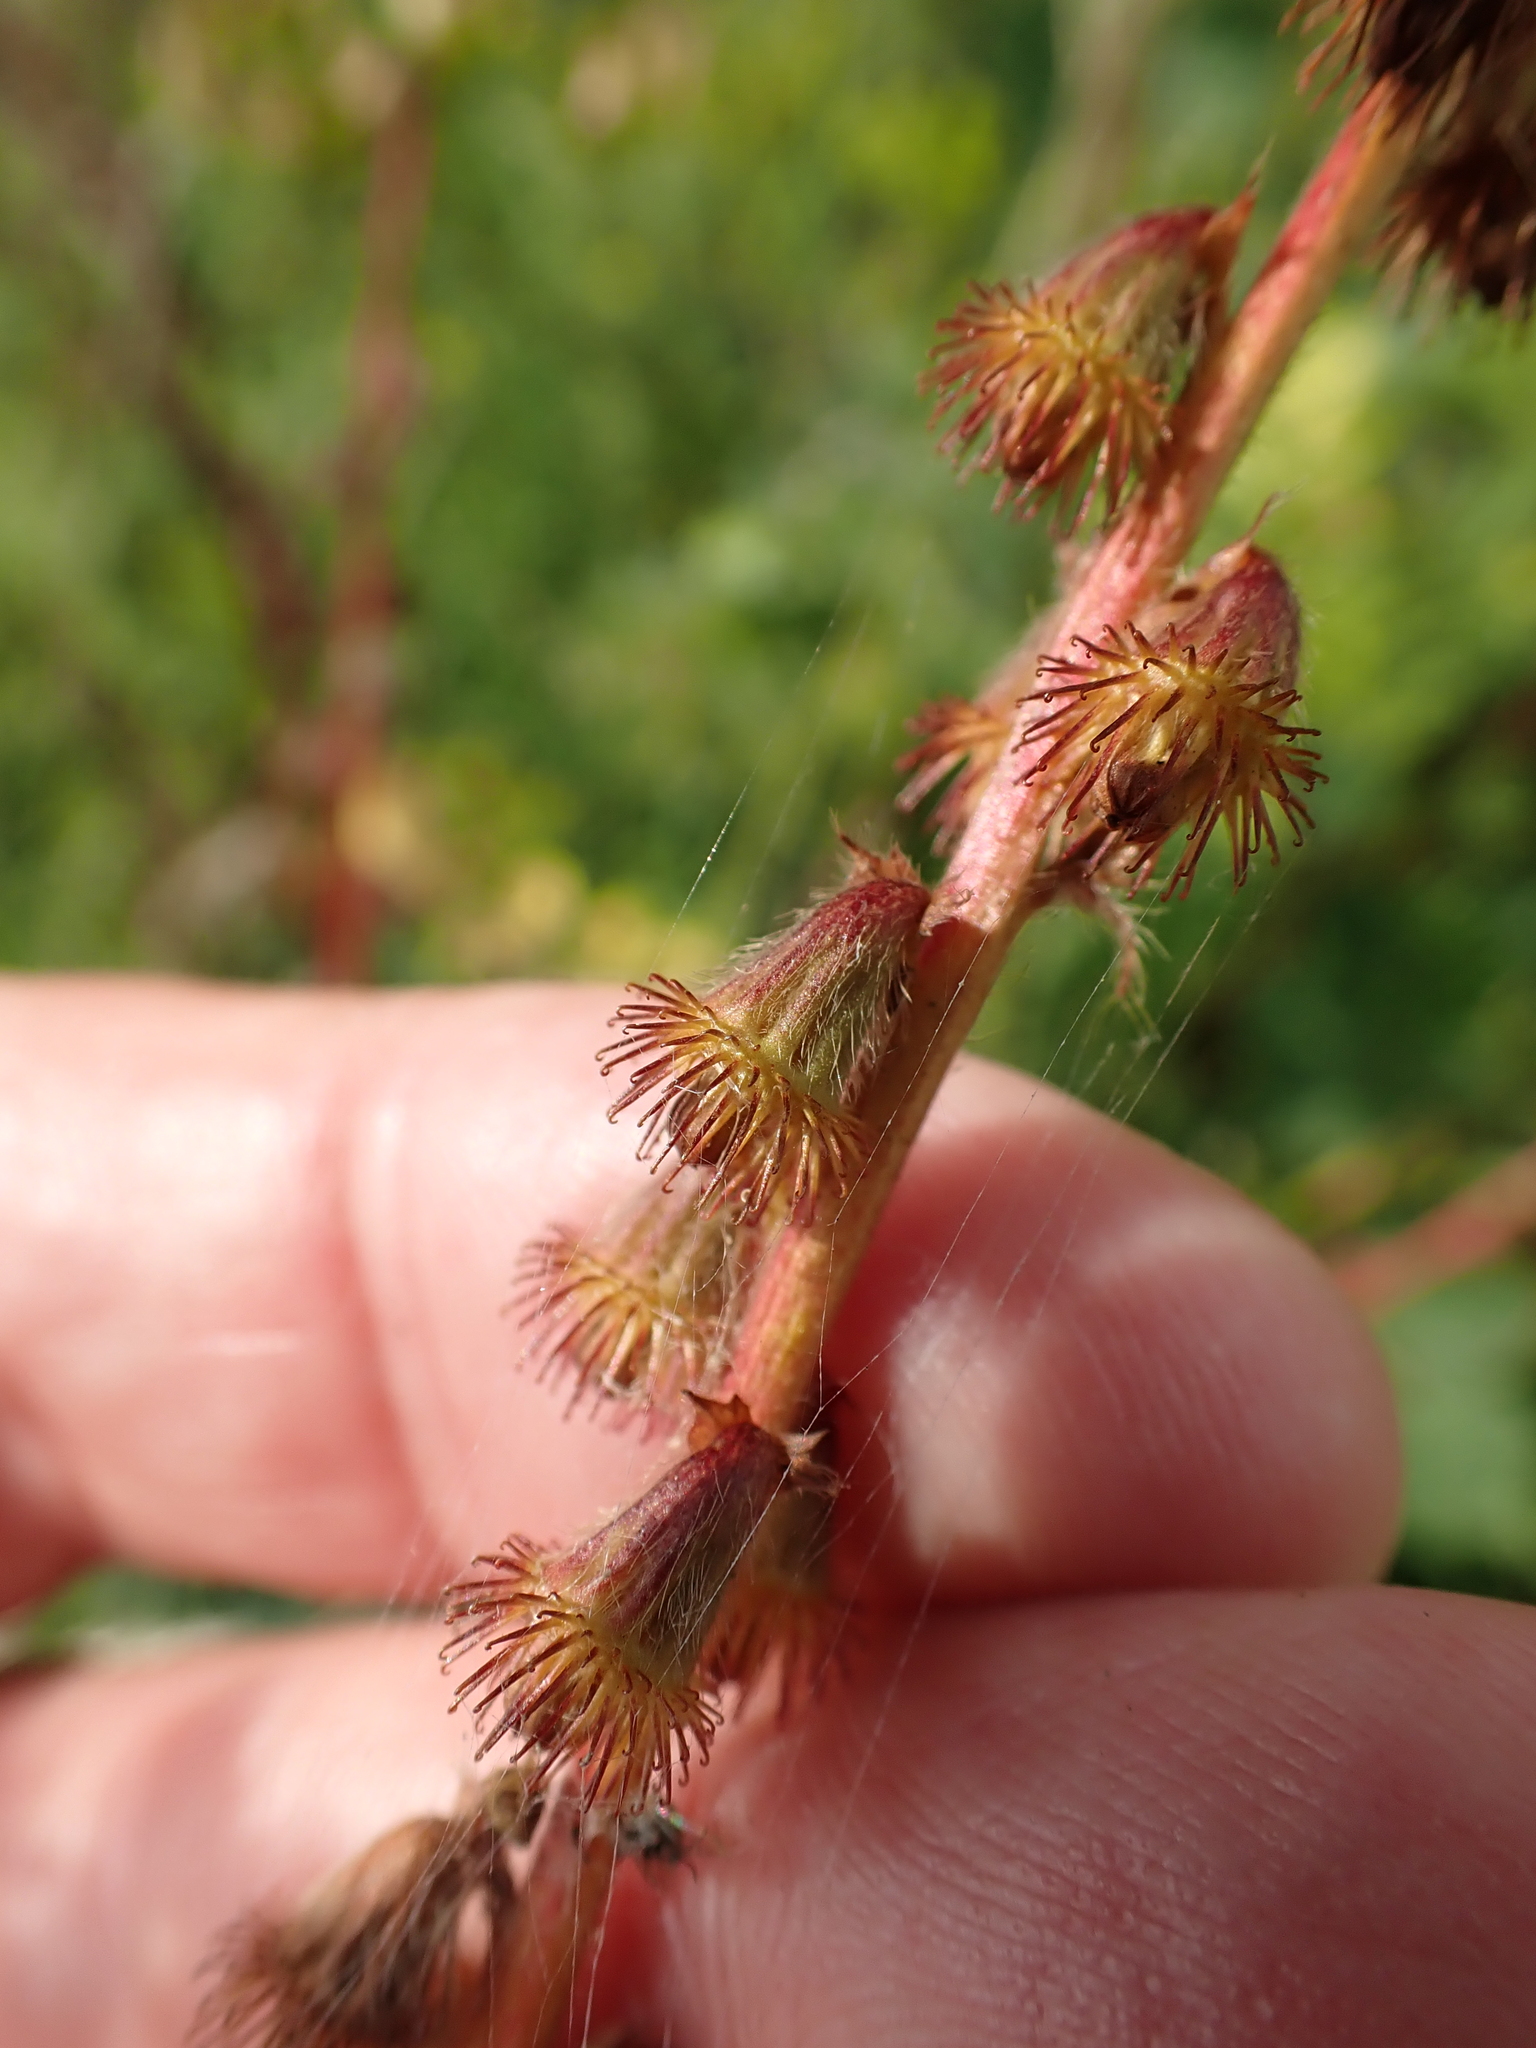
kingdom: Plantae
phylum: Tracheophyta
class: Magnoliopsida
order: Rosales
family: Rosaceae
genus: Agrimonia
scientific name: Agrimonia eupatoria
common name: Agrimony
